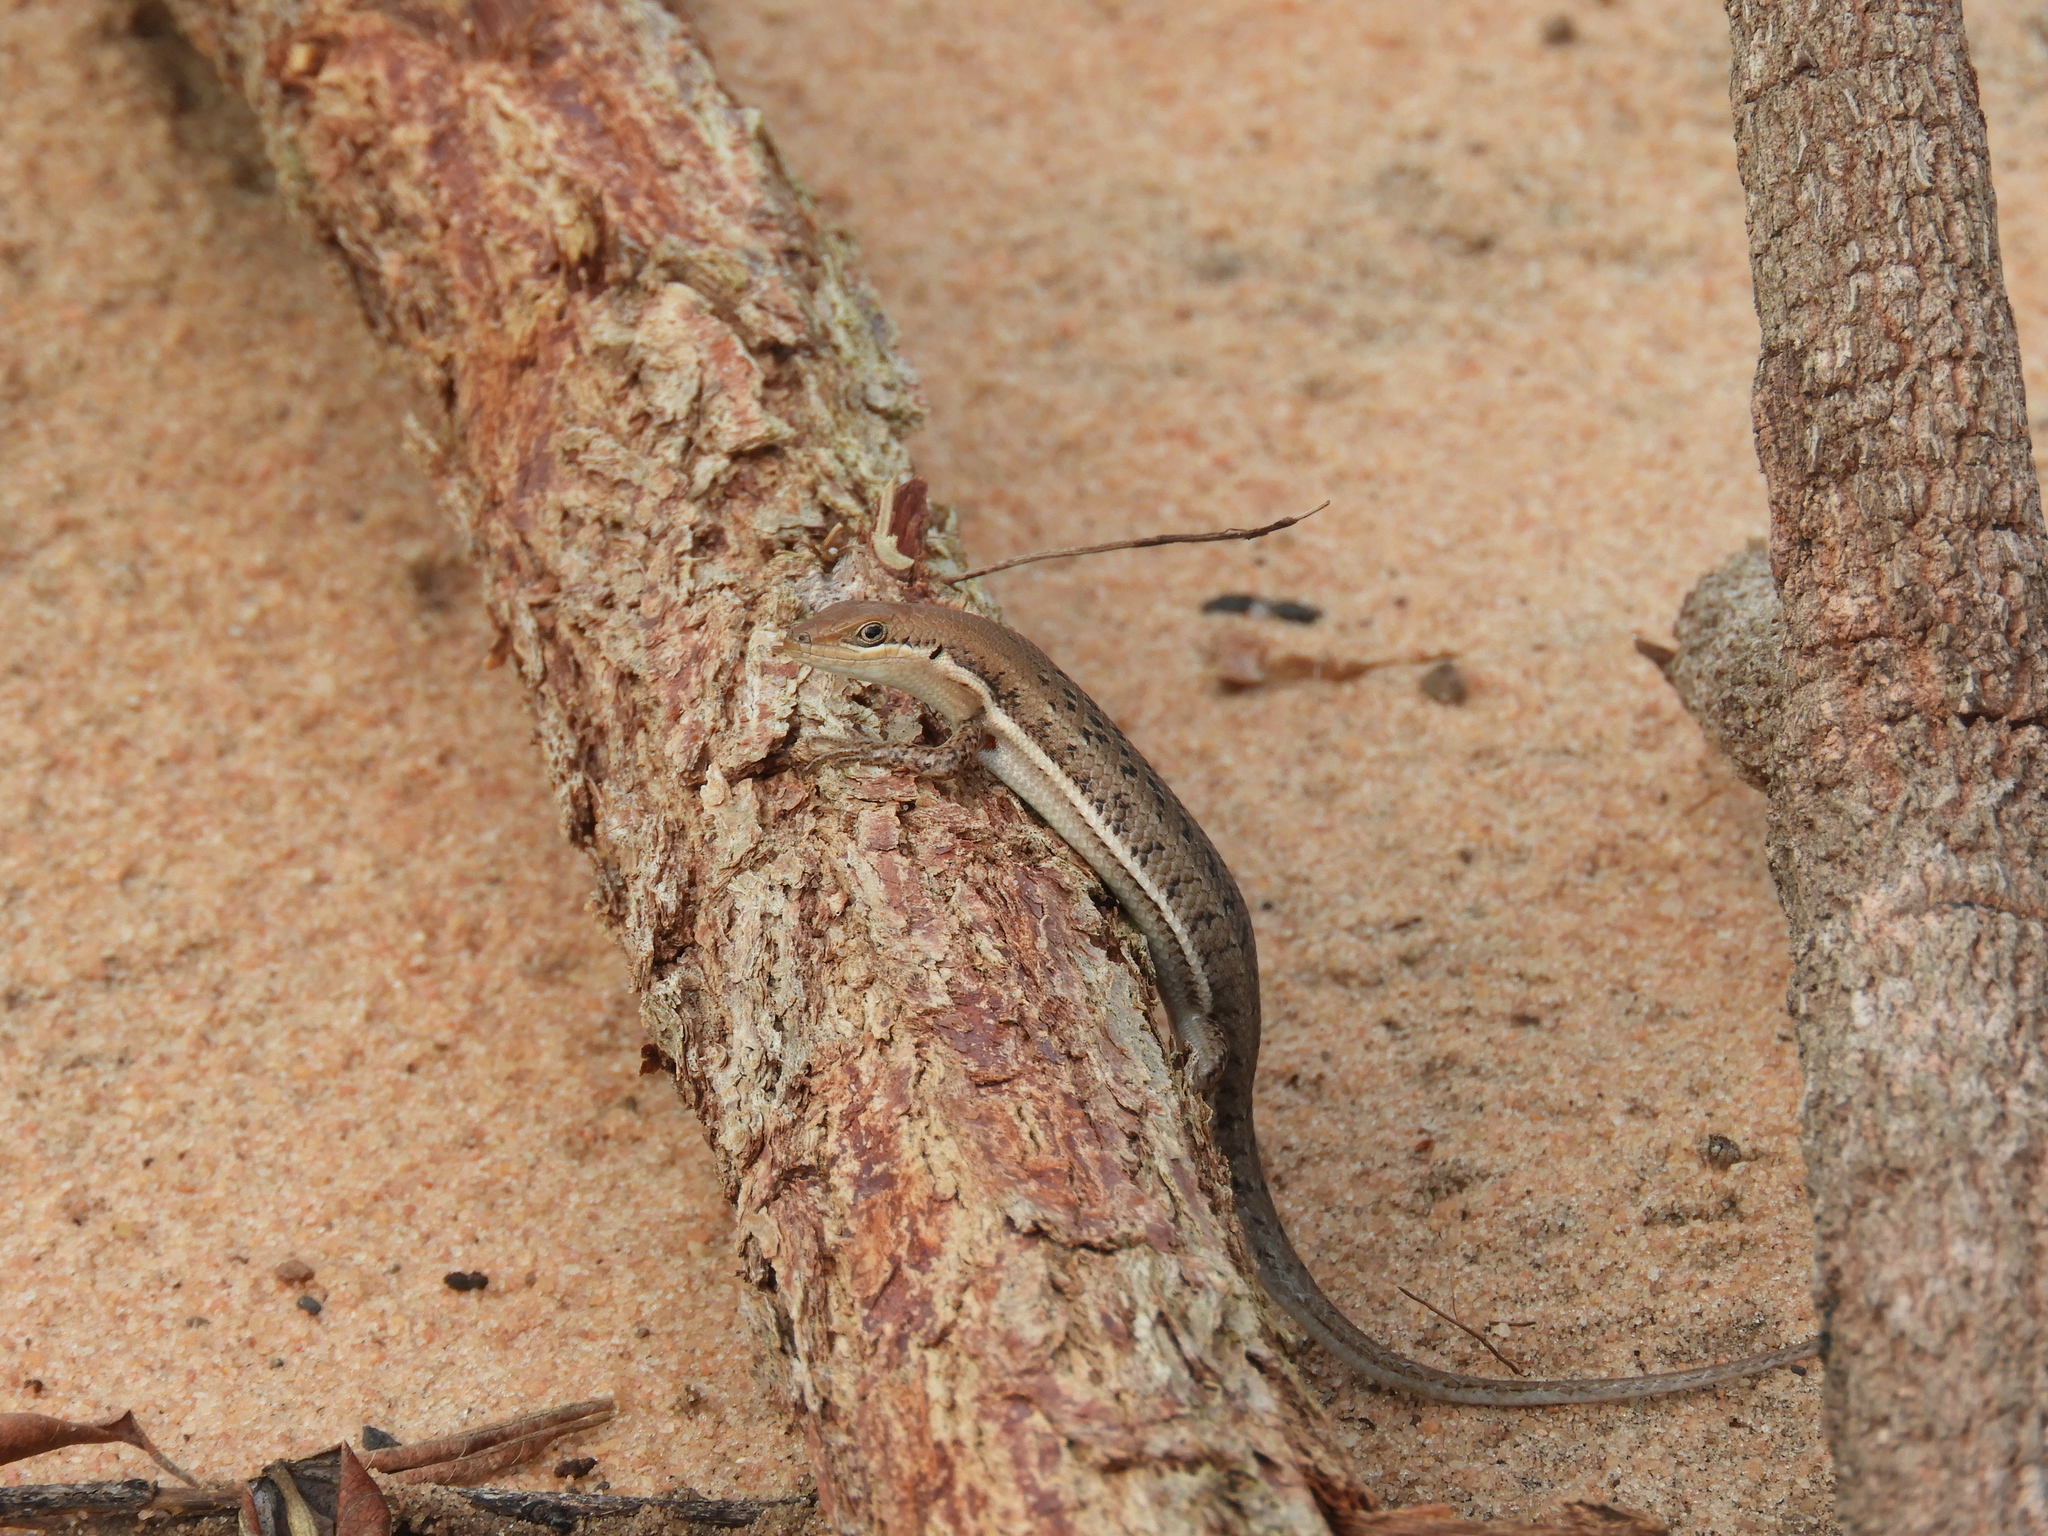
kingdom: Animalia
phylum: Chordata
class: Squamata
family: Scincidae
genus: Trachylepis
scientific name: Trachylepis varia
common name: Eastern variable skink
